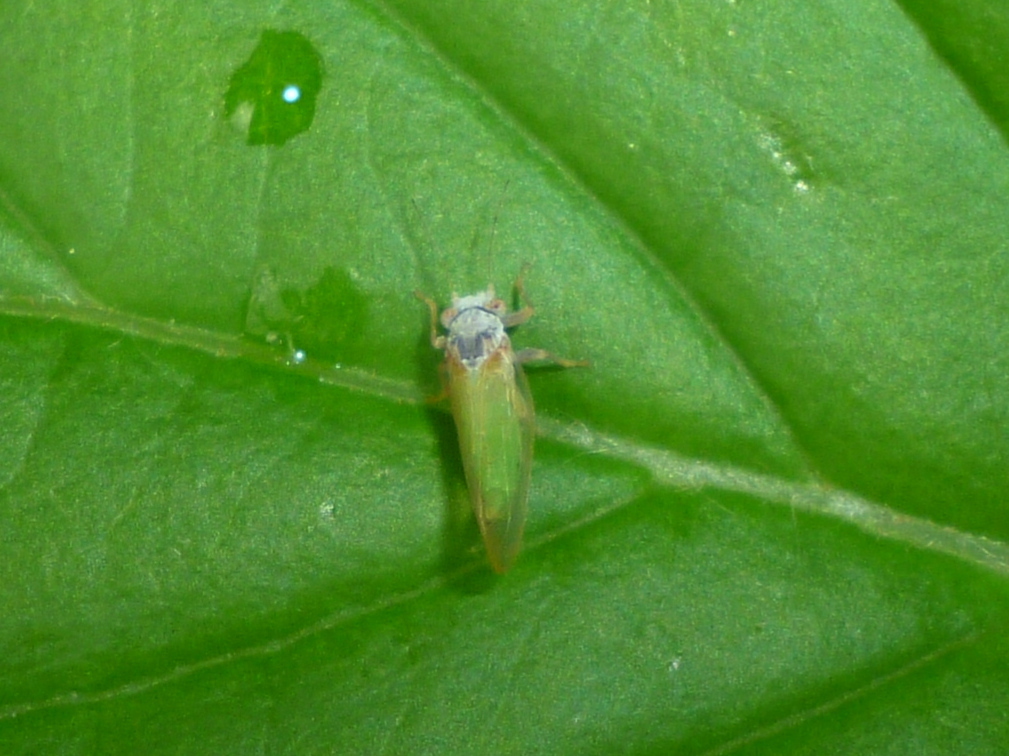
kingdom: Animalia
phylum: Arthropoda
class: Insecta
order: Hemiptera
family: Psyllidae
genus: Psylla
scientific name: Psylla buxi
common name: Boxwood psyllid
